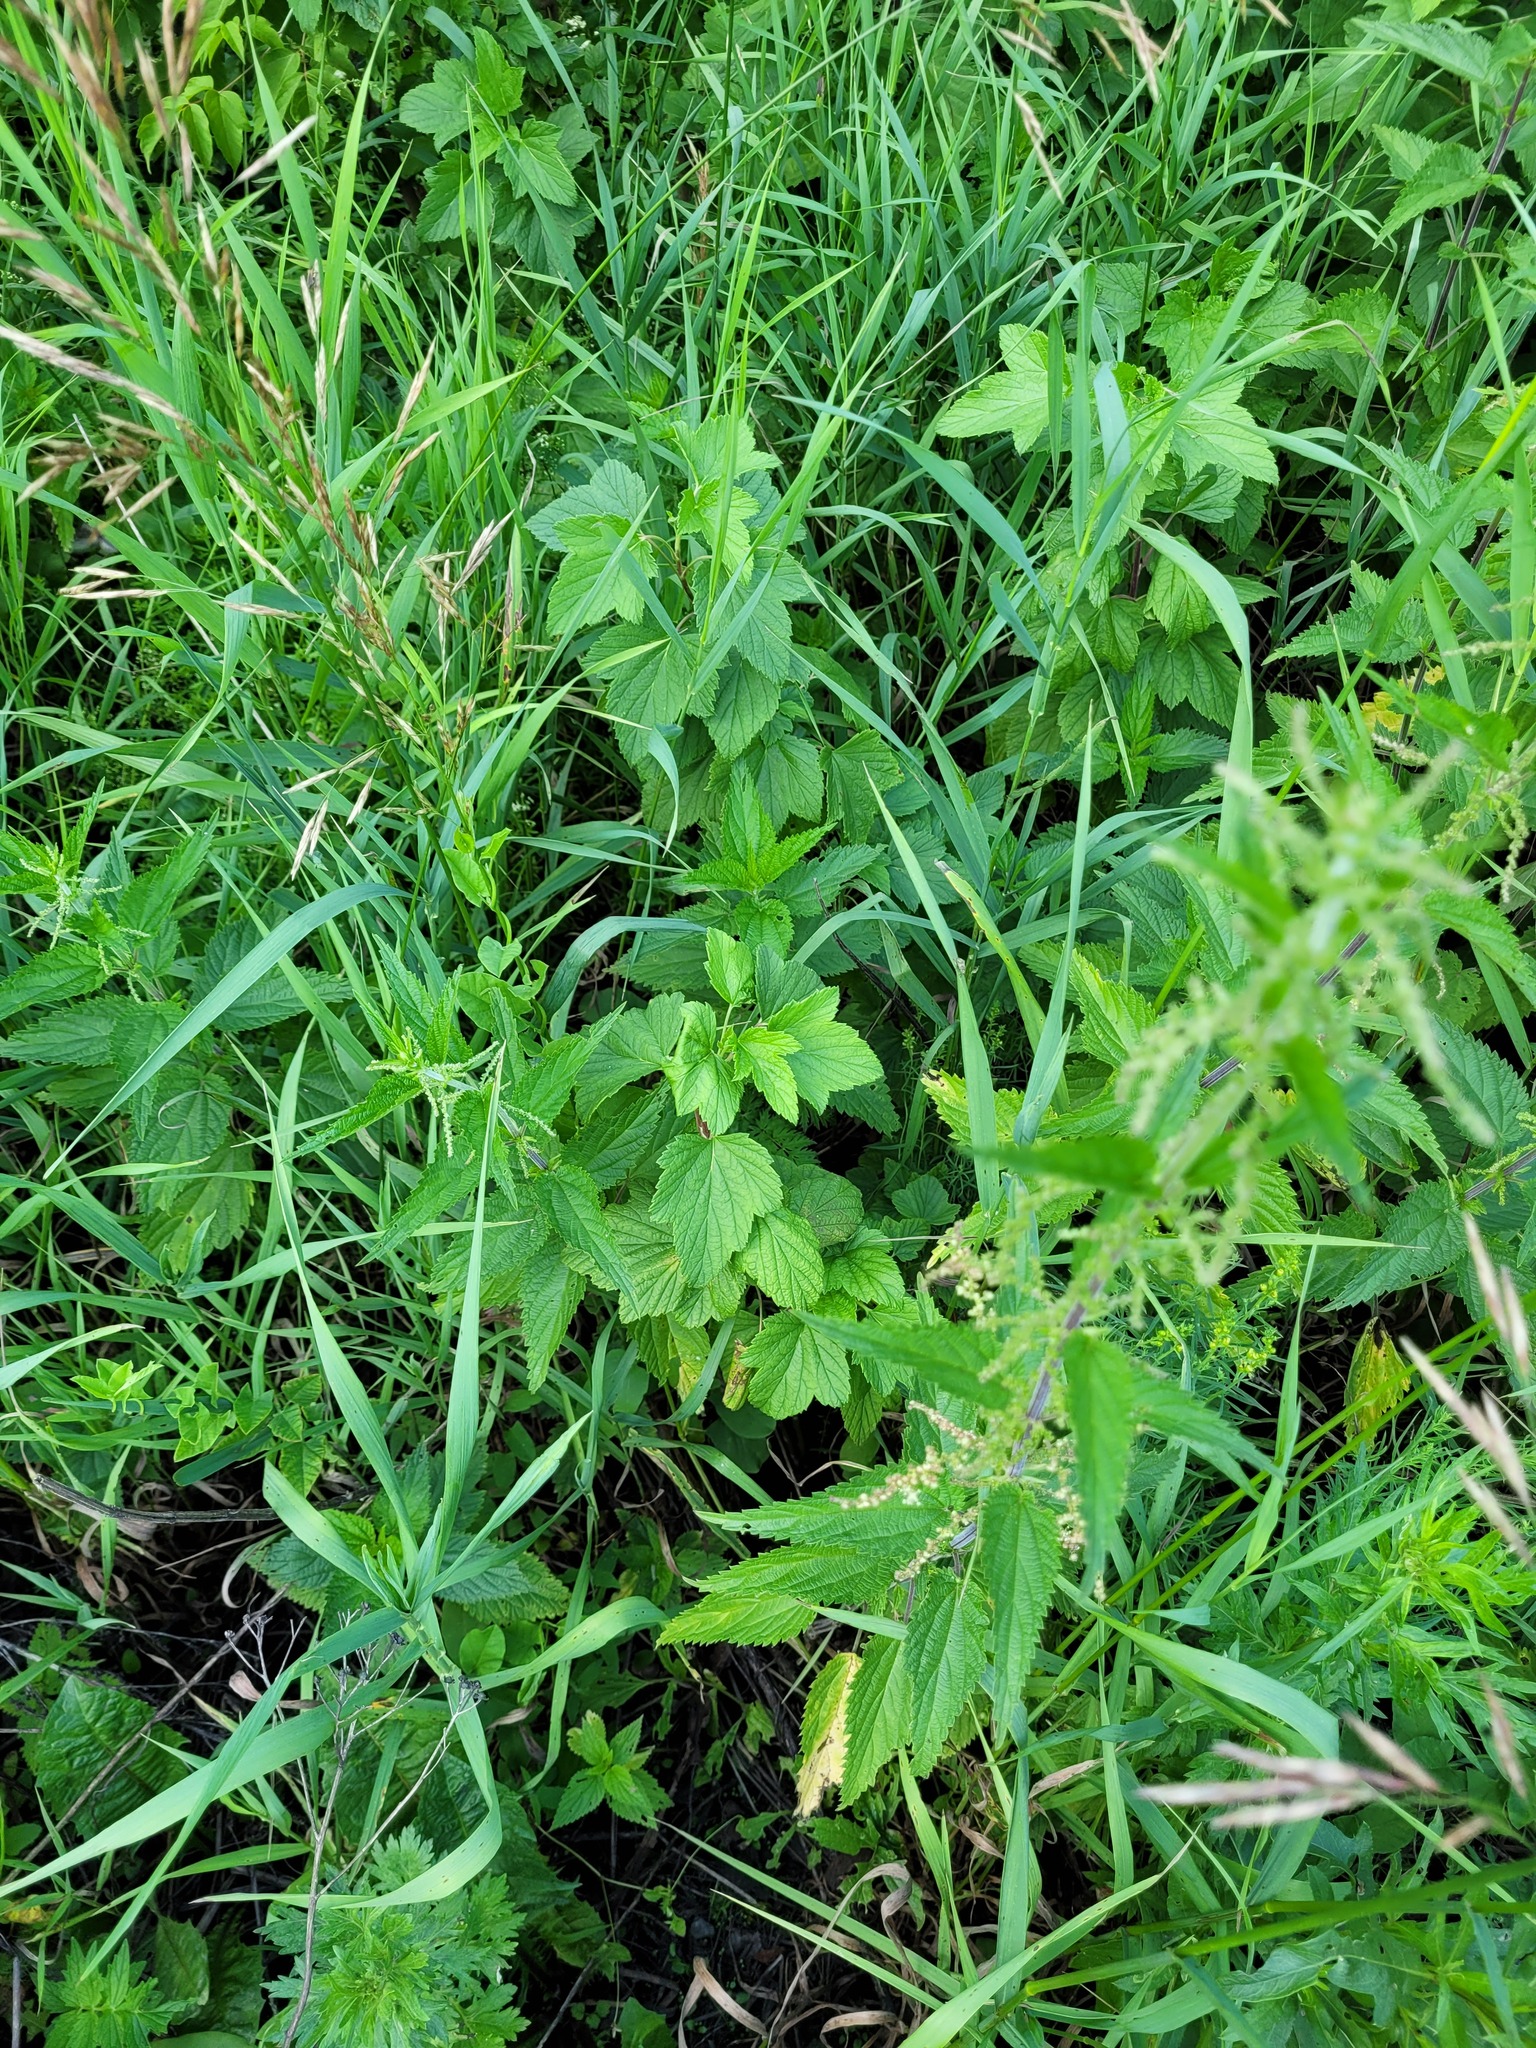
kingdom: Plantae
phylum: Tracheophyta
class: Magnoliopsida
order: Saxifragales
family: Grossulariaceae
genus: Ribes
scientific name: Ribes nigrum
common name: Black currant
